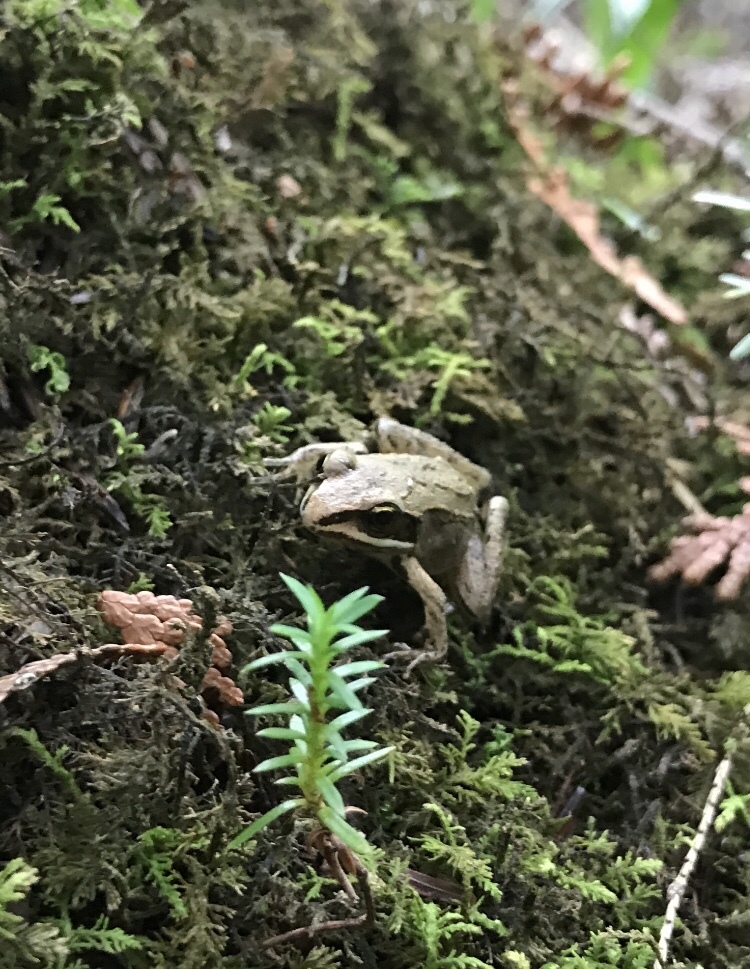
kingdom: Animalia
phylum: Chordata
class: Amphibia
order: Anura
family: Ranidae
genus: Lithobates
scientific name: Lithobates sylvaticus
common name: Wood frog
